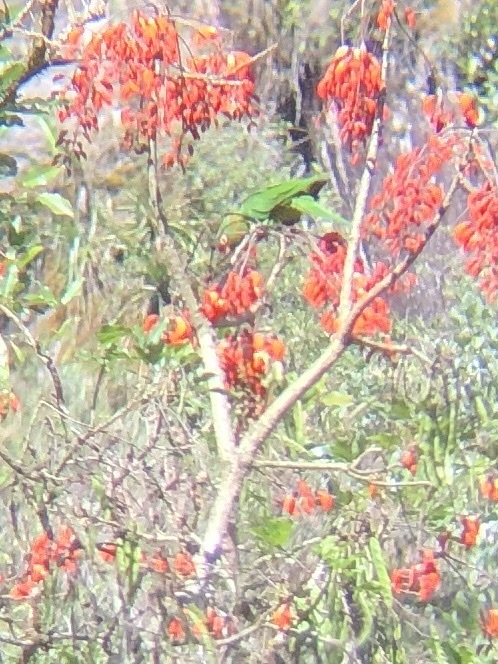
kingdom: Animalia
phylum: Chordata
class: Aves
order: Psittaciformes
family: Psittacidae
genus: Aratinga
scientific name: Aratinga mitrata
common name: Mitred parakeet
